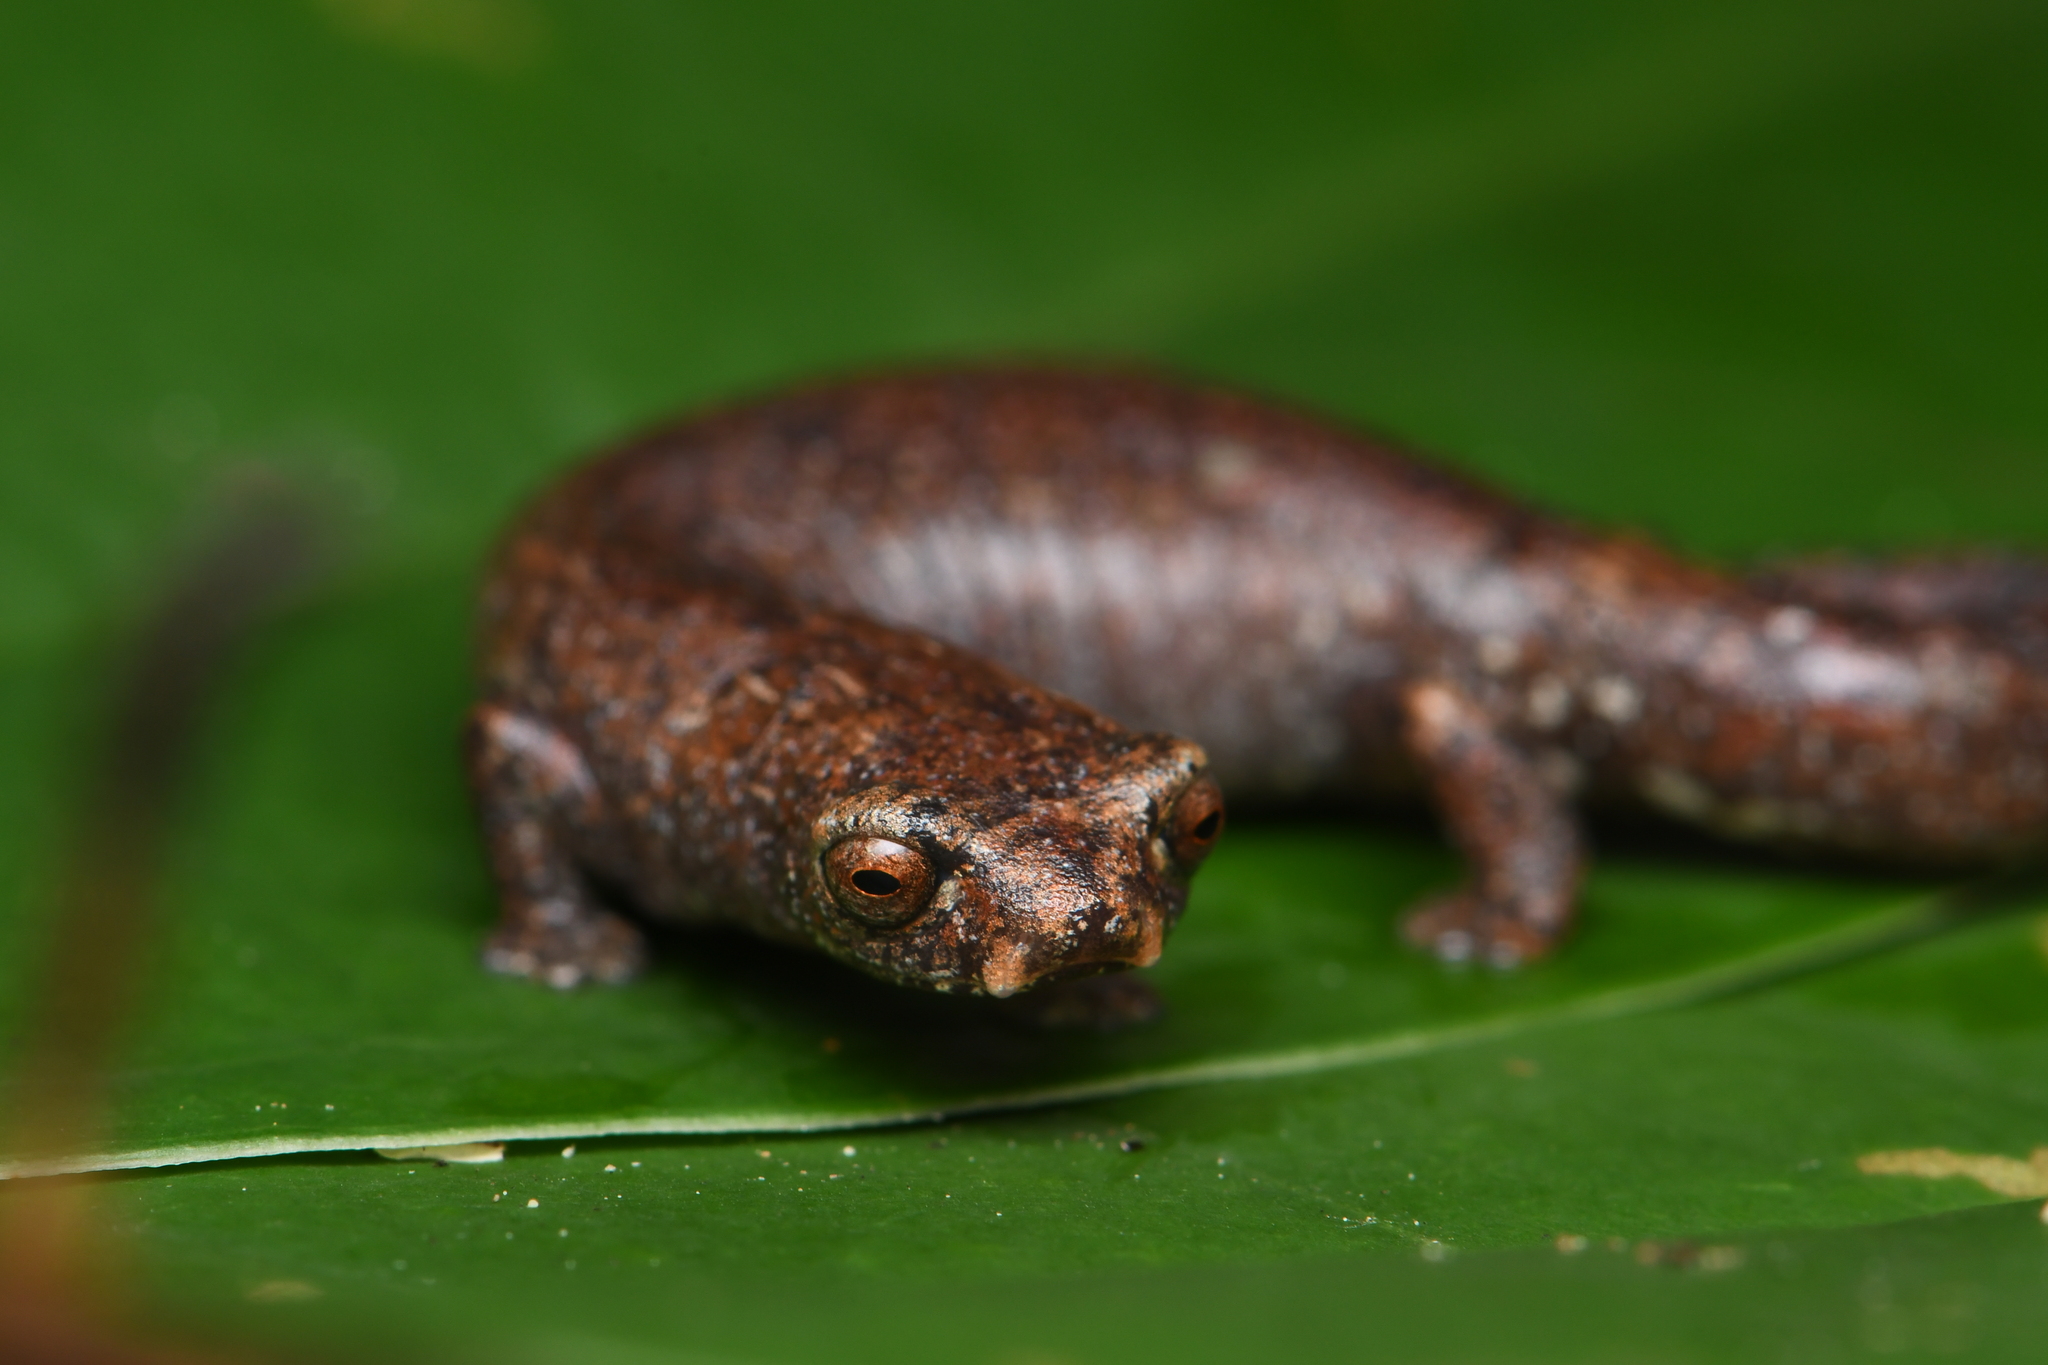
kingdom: Animalia
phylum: Chordata
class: Amphibia
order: Caudata
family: Plethodontidae
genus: Bolitoglossa
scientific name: Bolitoglossa altamazonica
